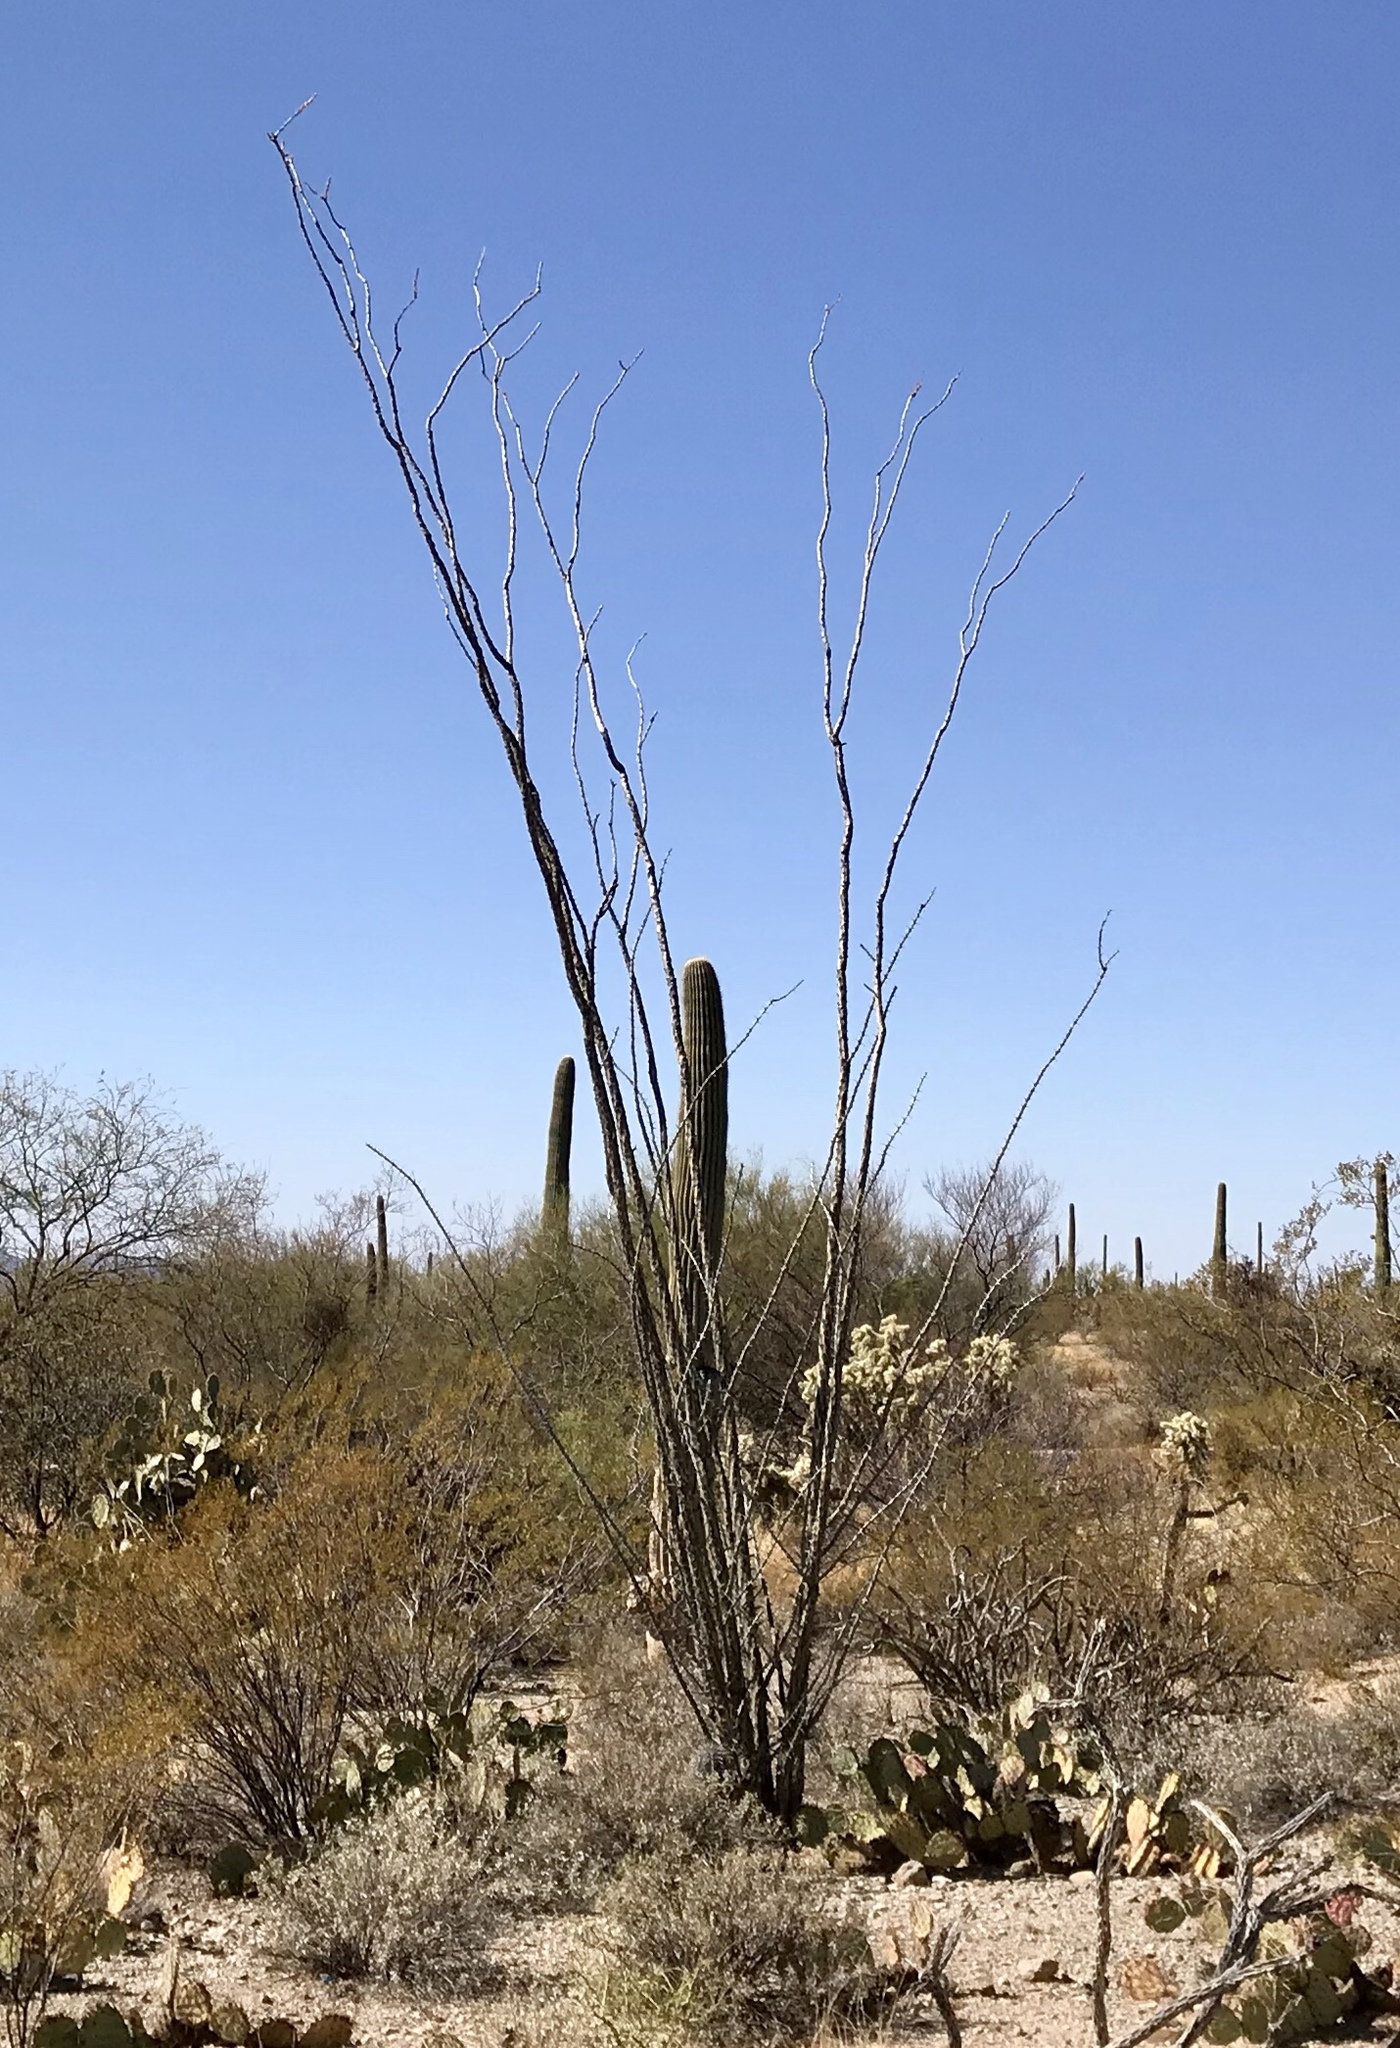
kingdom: Plantae
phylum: Tracheophyta
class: Magnoliopsida
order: Ericales
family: Fouquieriaceae
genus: Fouquieria
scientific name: Fouquieria splendens
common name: Vine-cactus
